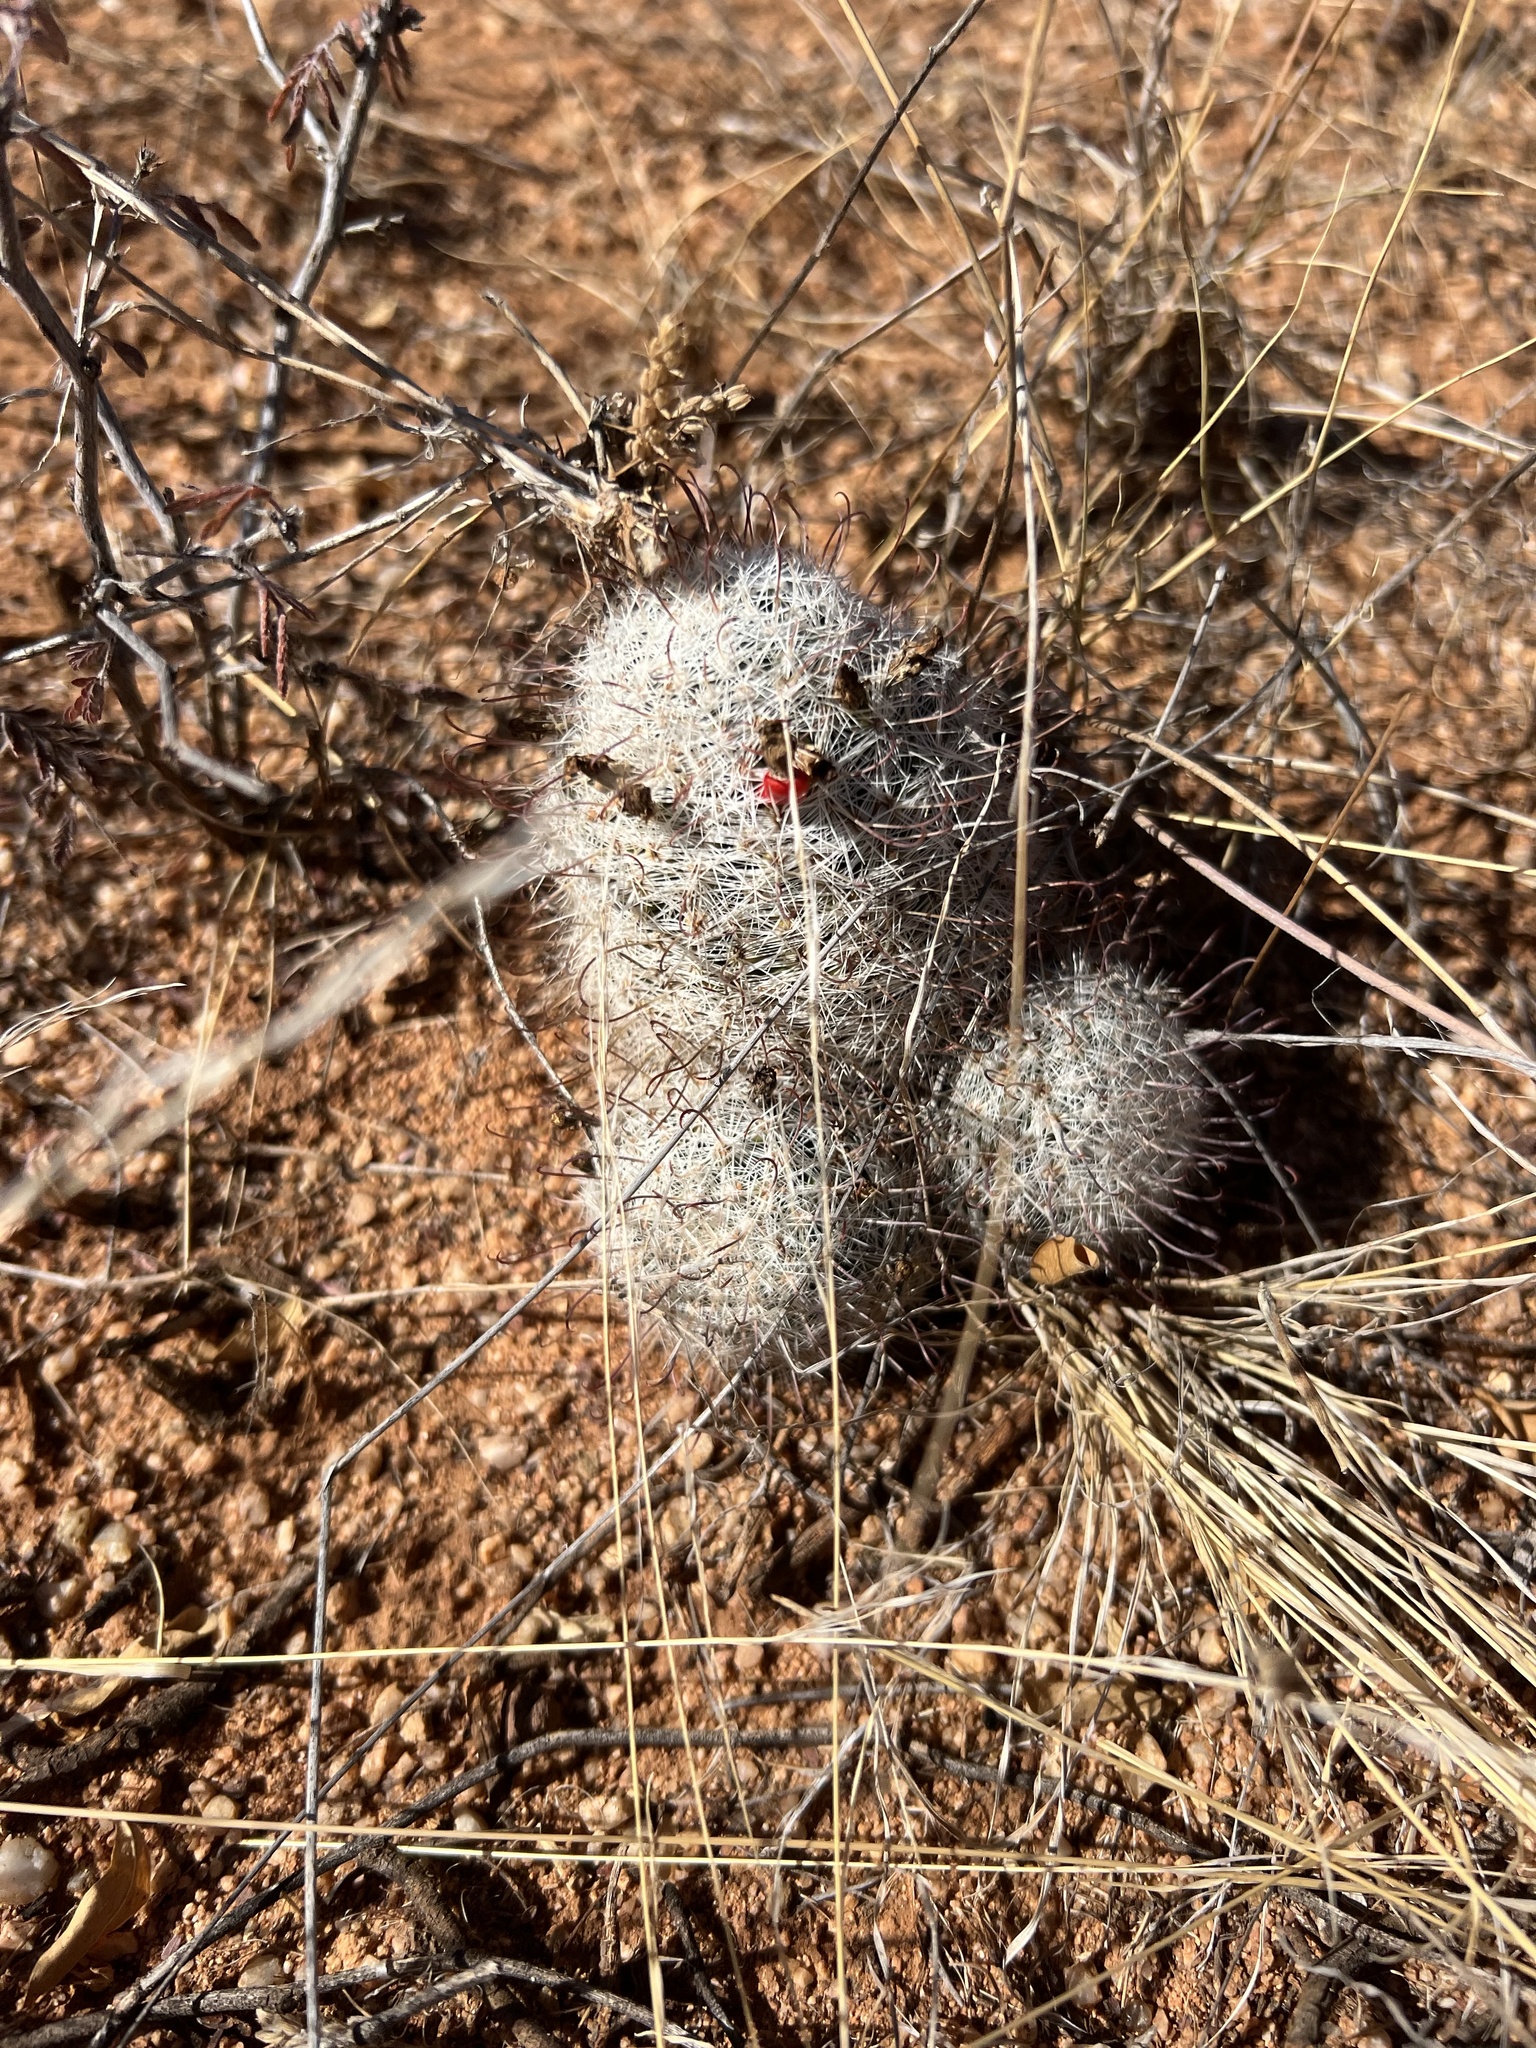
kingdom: Plantae
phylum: Tracheophyta
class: Magnoliopsida
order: Caryophyllales
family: Cactaceae
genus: Cochemiea
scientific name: Cochemiea grahamii
